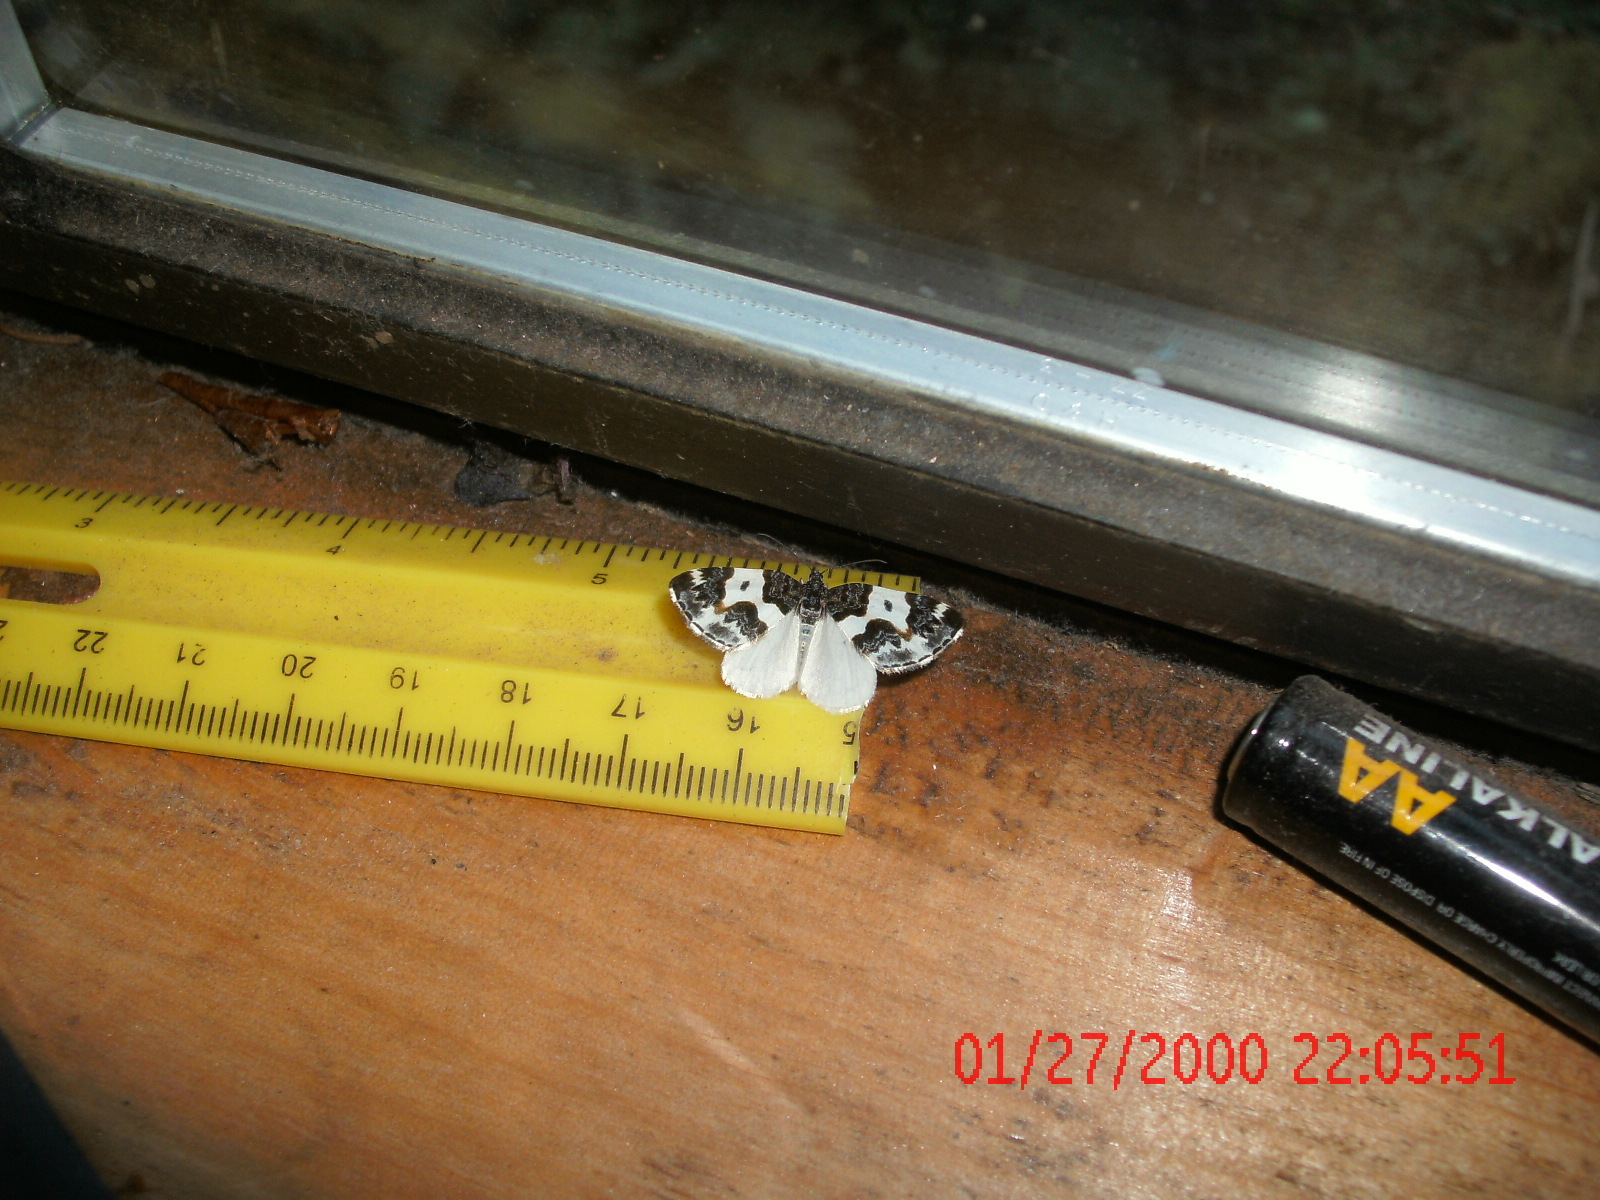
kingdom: Animalia
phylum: Arthropoda
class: Insecta
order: Lepidoptera
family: Geometridae
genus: Mesoleuca
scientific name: Mesoleuca gratulata
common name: Half-white carpet moth
